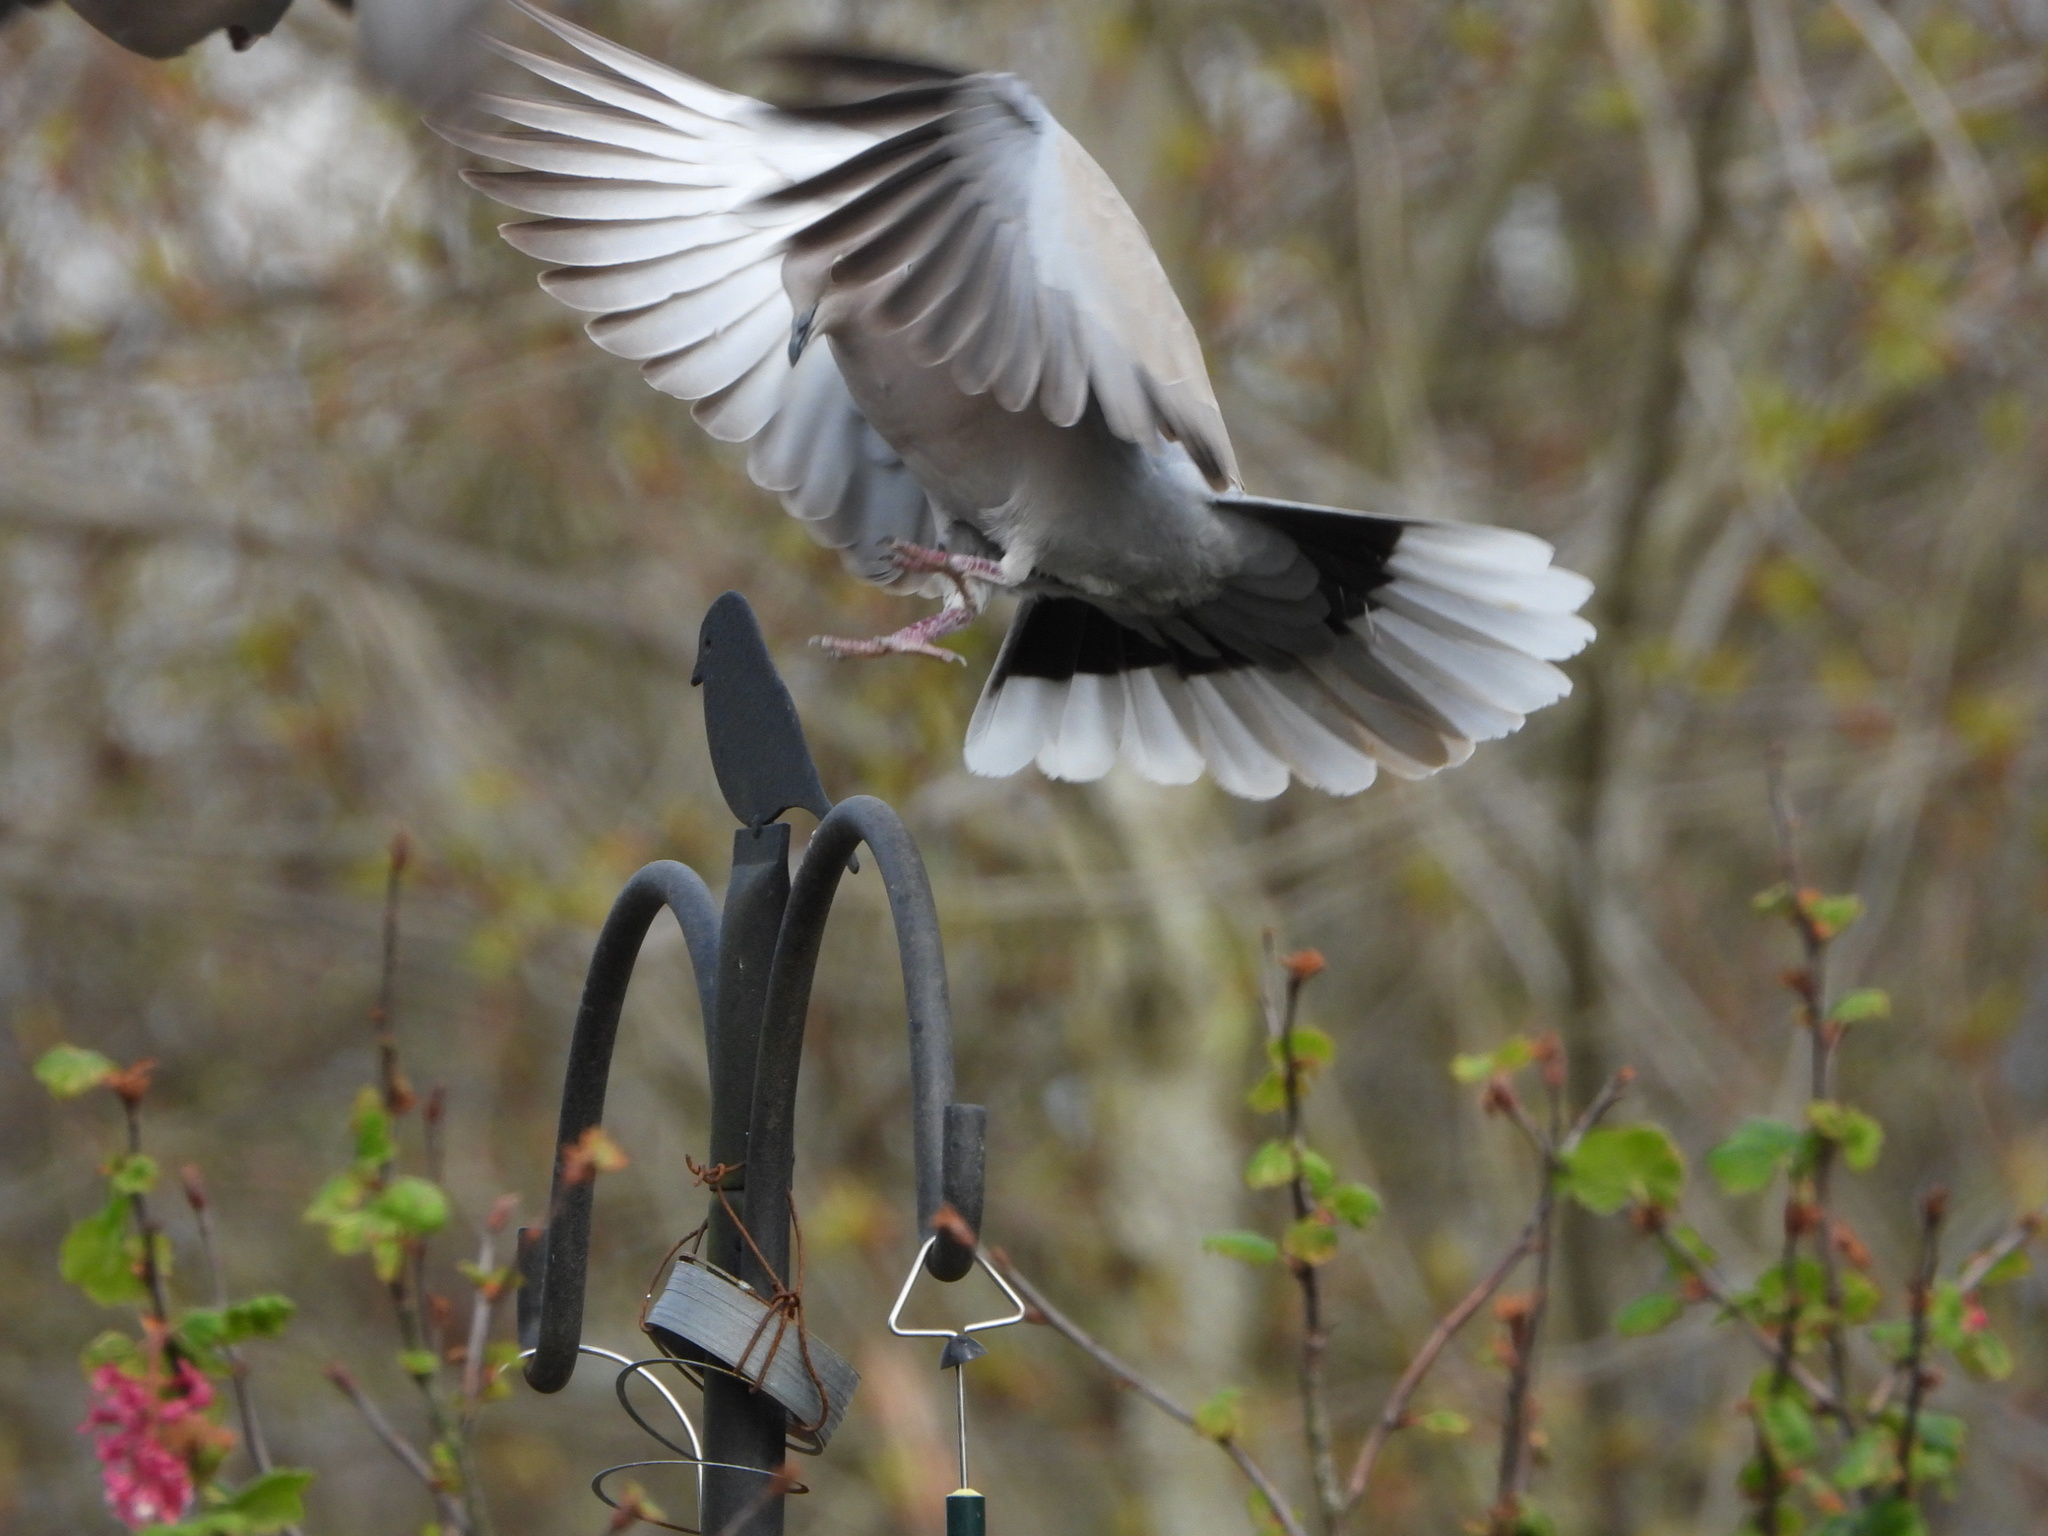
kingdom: Animalia
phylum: Chordata
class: Aves
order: Columbiformes
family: Columbidae
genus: Streptopelia
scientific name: Streptopelia decaocto
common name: Eurasian collared dove
